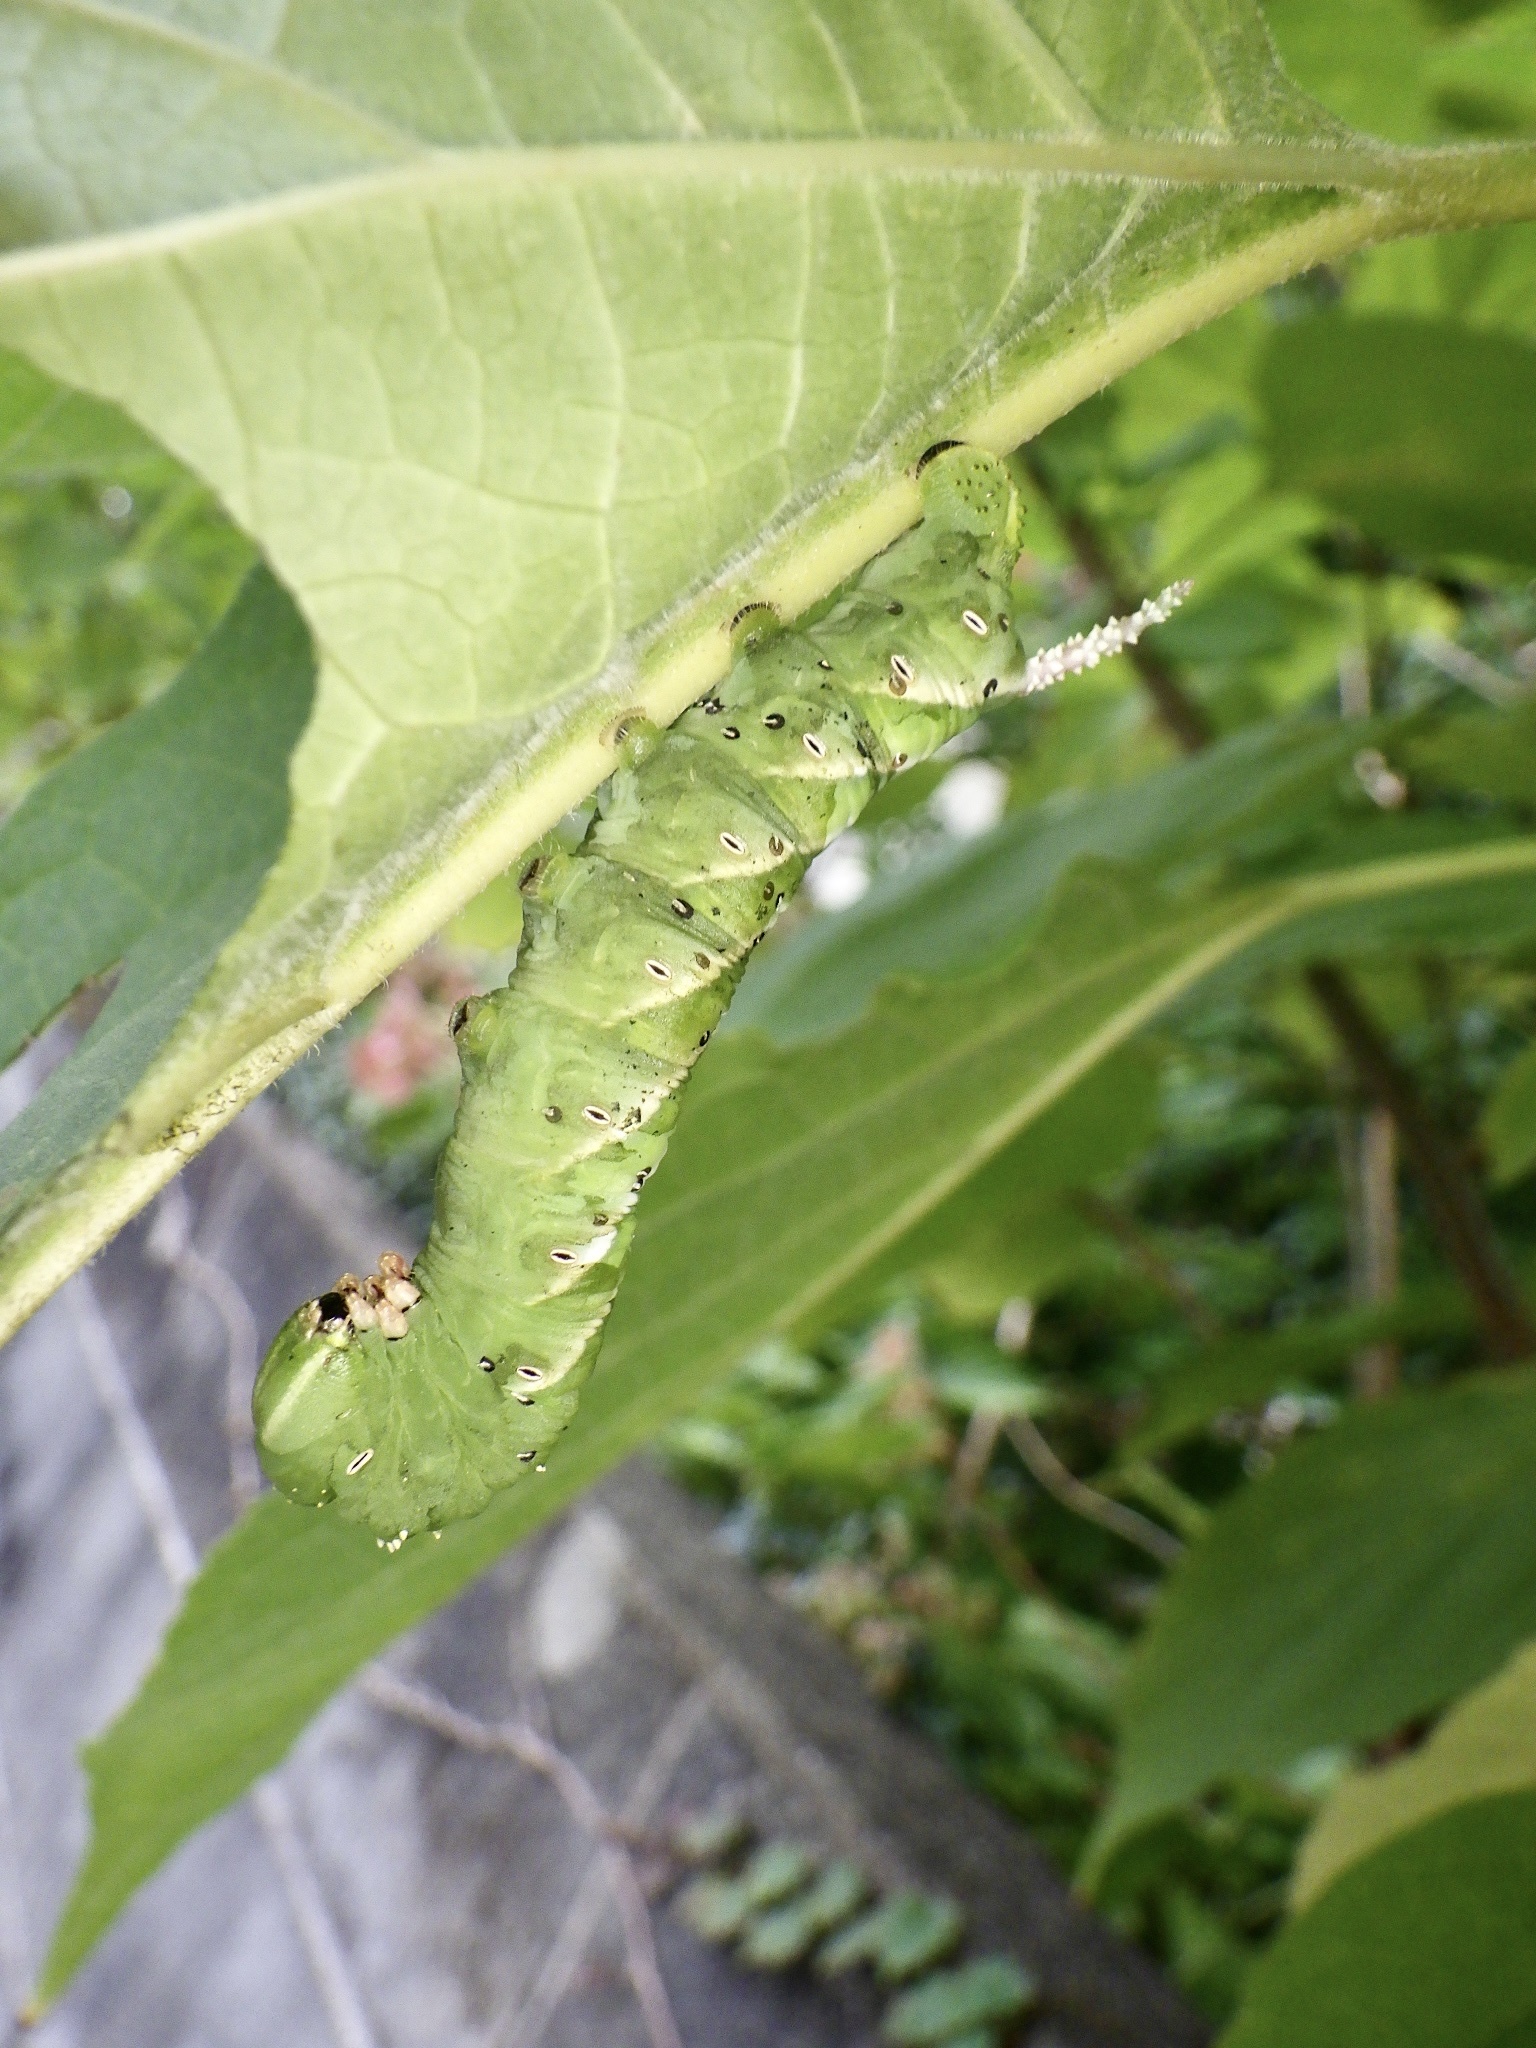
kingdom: Animalia
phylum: Arthropoda
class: Insecta
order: Lepidoptera
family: Sphingidae
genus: Psilogramma
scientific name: Psilogramma increta
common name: Gray hawk moth
